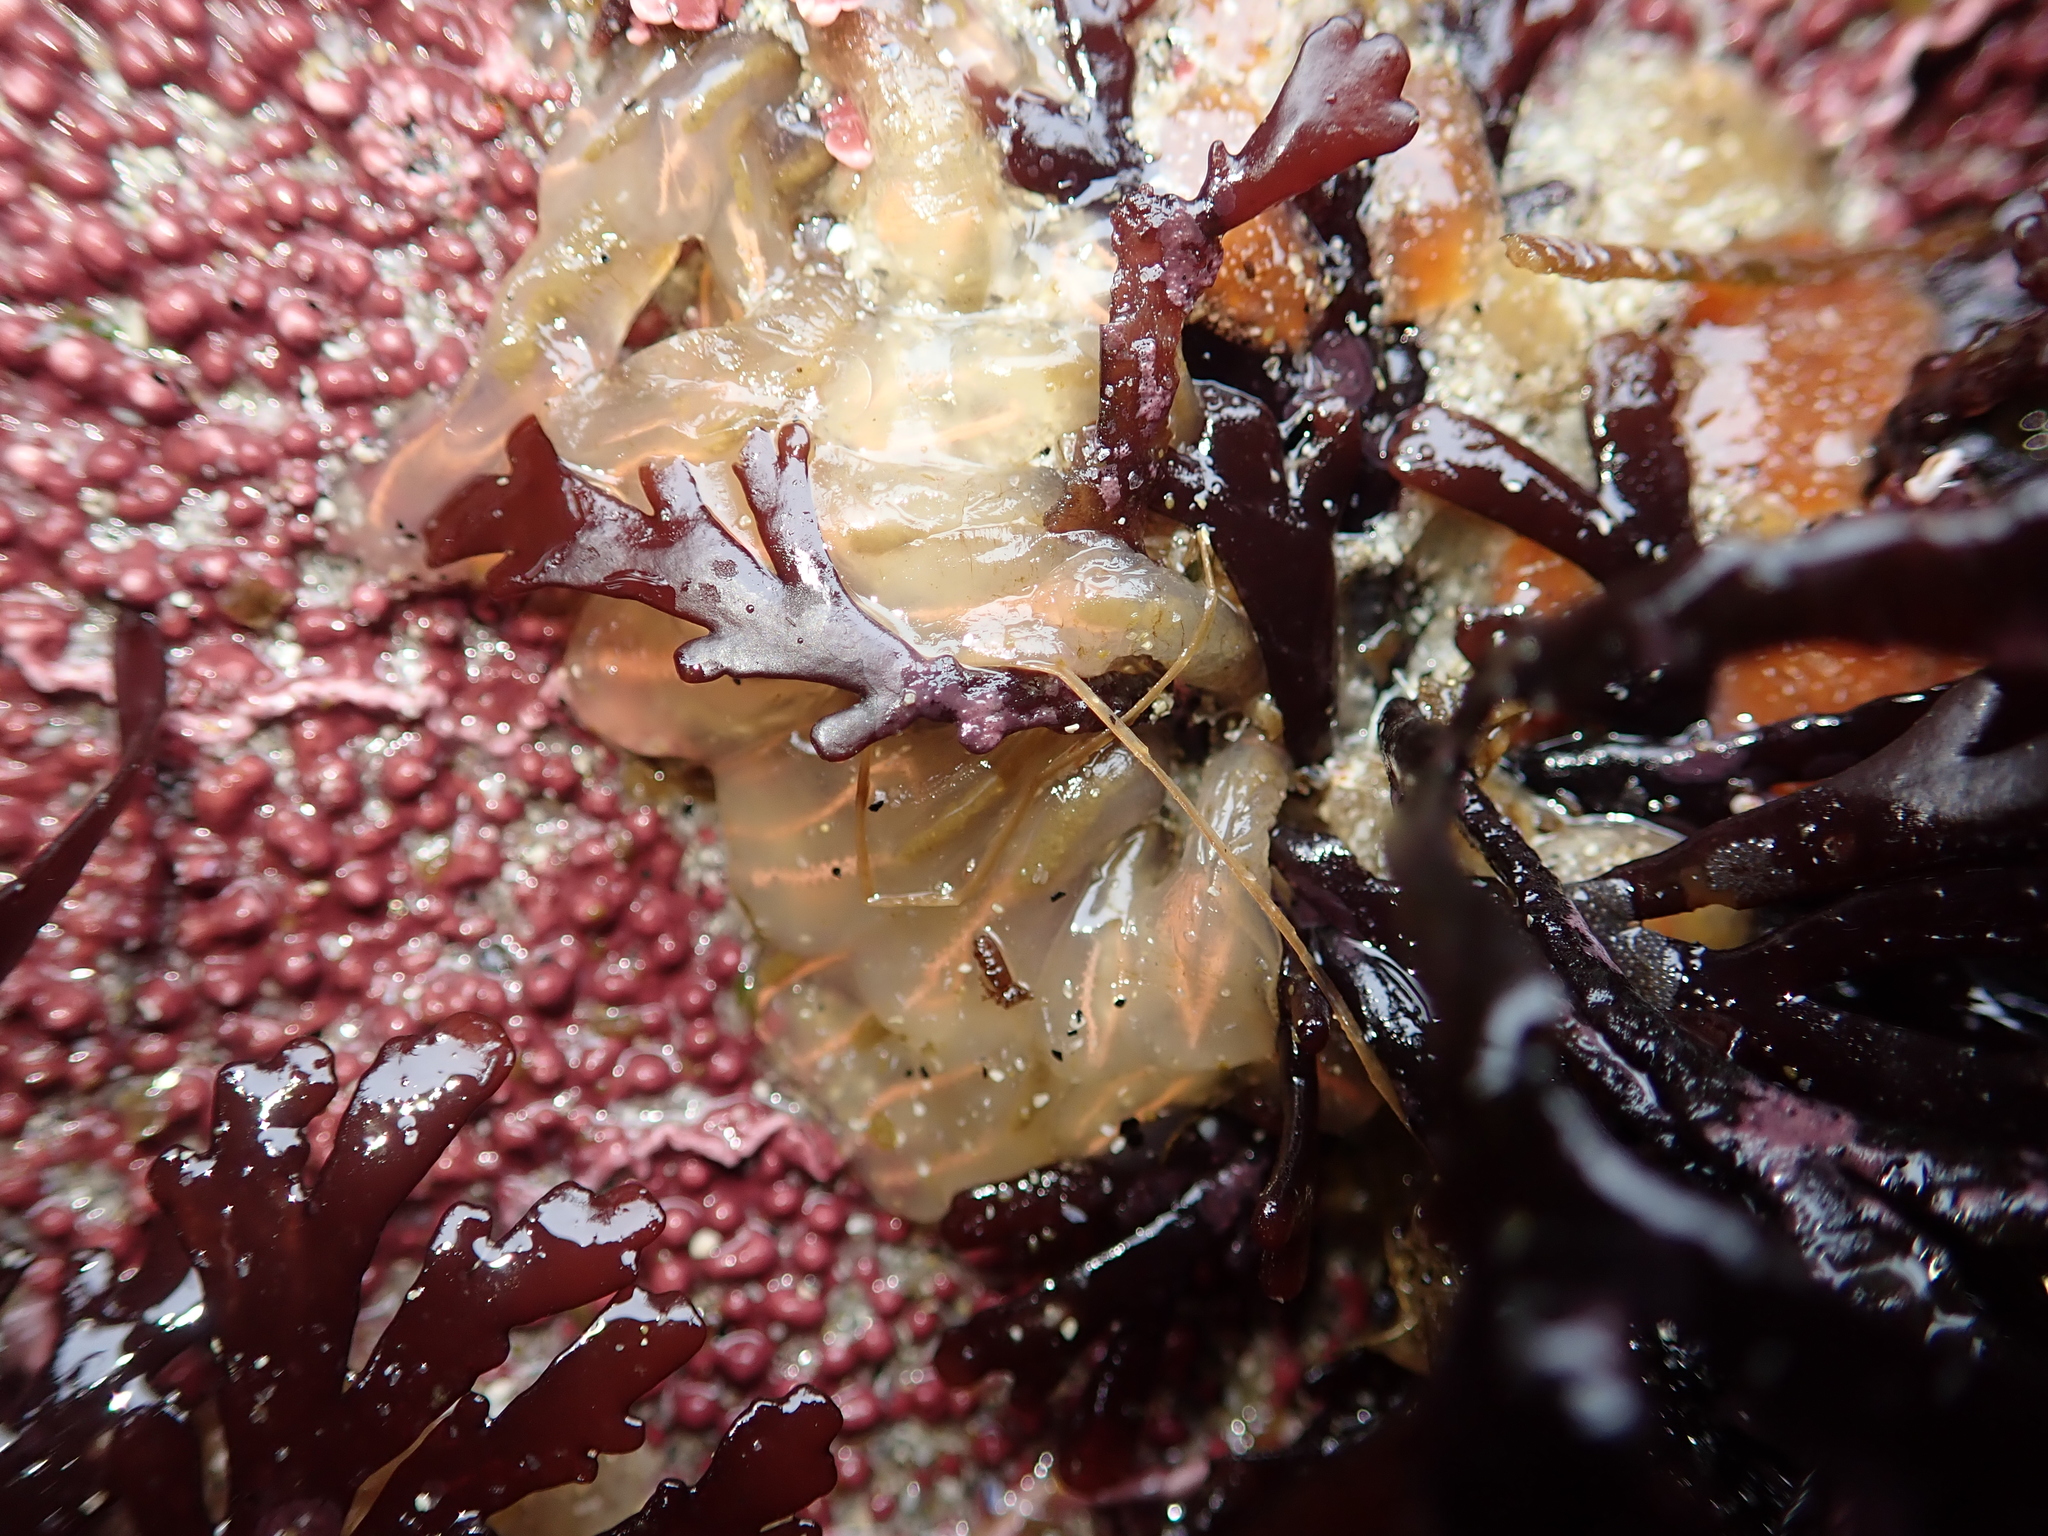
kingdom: Animalia
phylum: Chordata
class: Ascidiacea
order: Aplousobranchia
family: Clavelinidae
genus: Clavelina
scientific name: Clavelina huntsmani
